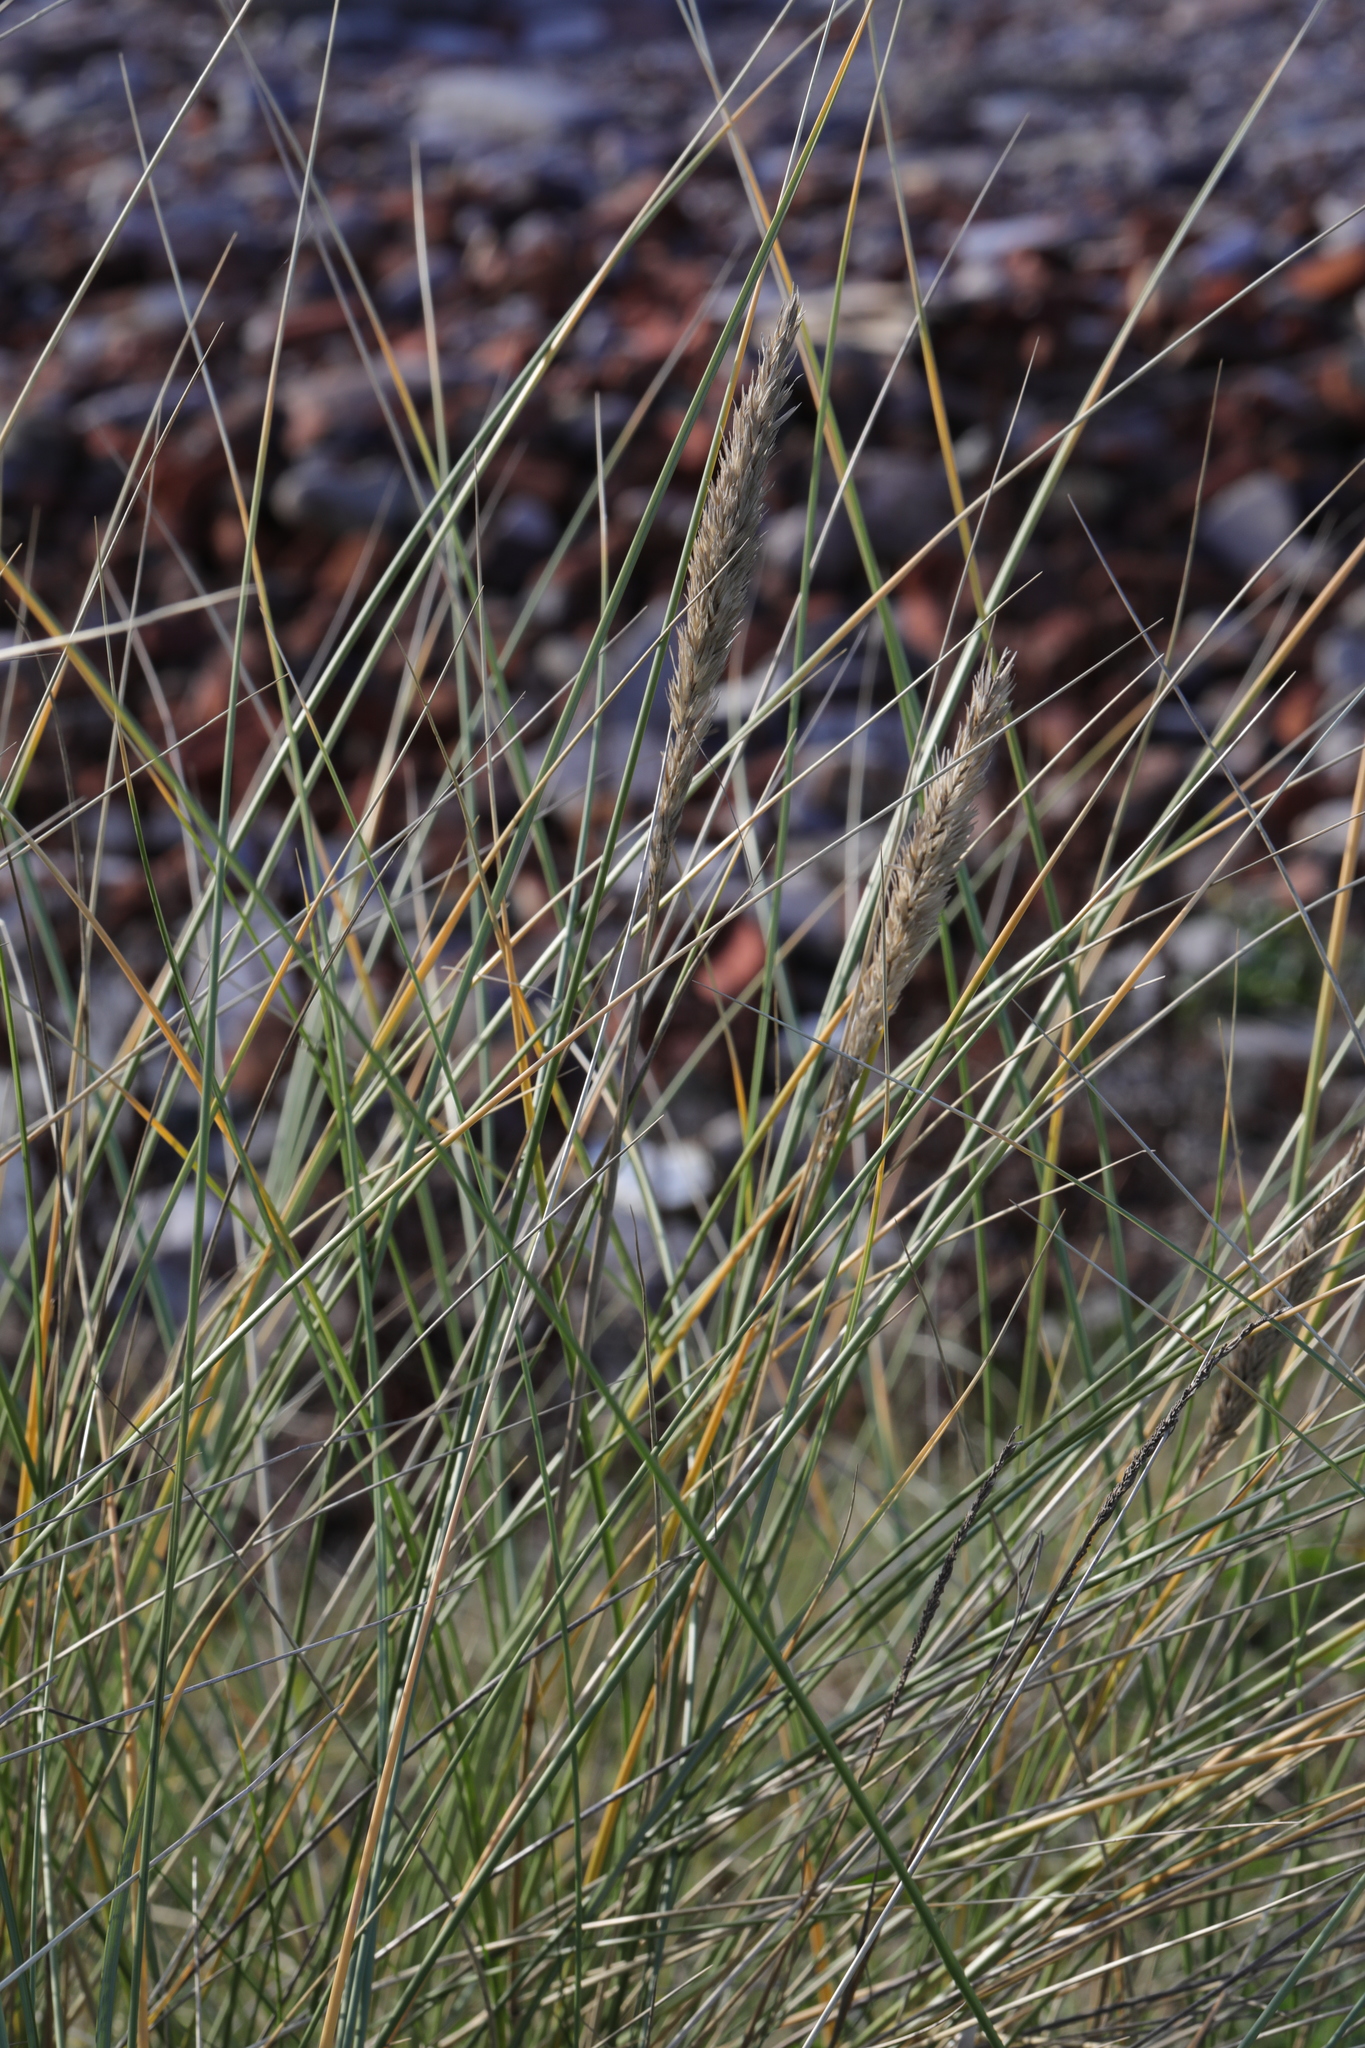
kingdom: Plantae
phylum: Tracheophyta
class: Liliopsida
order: Poales
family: Poaceae
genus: Calamagrostis
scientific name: Calamagrostis arenaria
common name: European beachgrass
